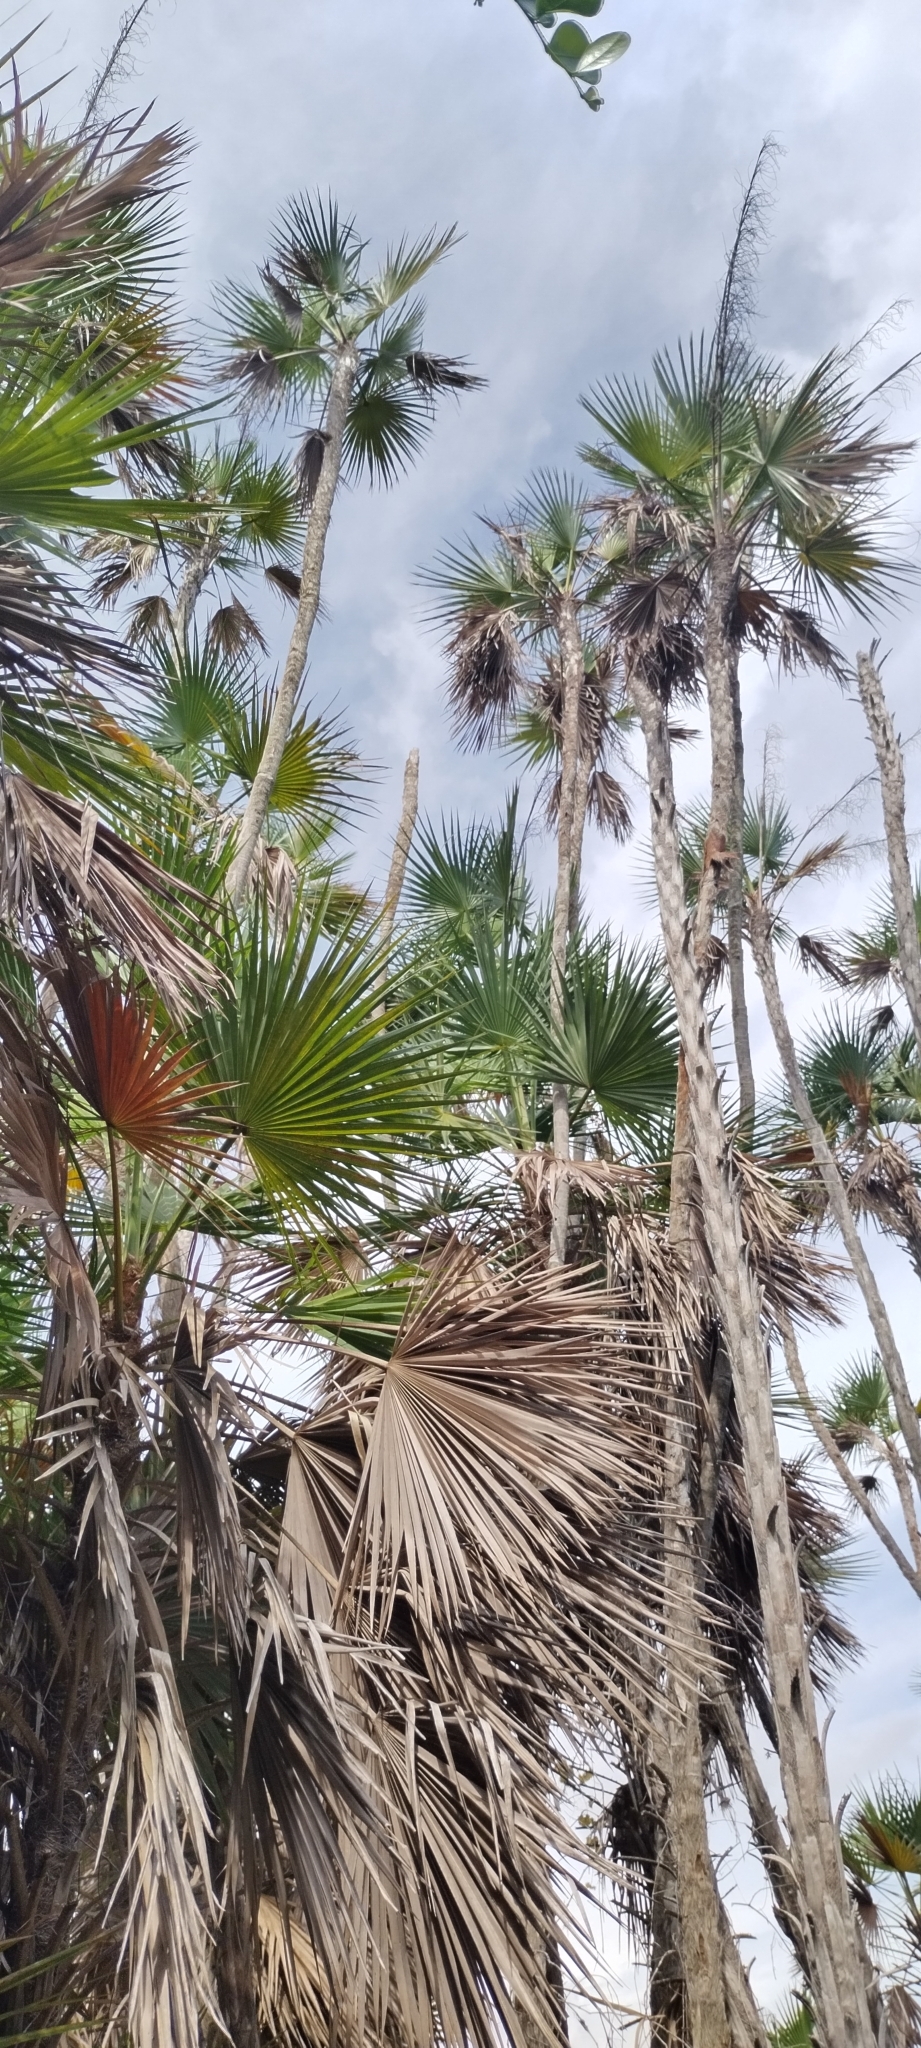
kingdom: Plantae
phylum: Tracheophyta
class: Liliopsida
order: Arecales
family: Arecaceae
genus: Acoelorraphe
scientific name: Acoelorraphe wrightii
